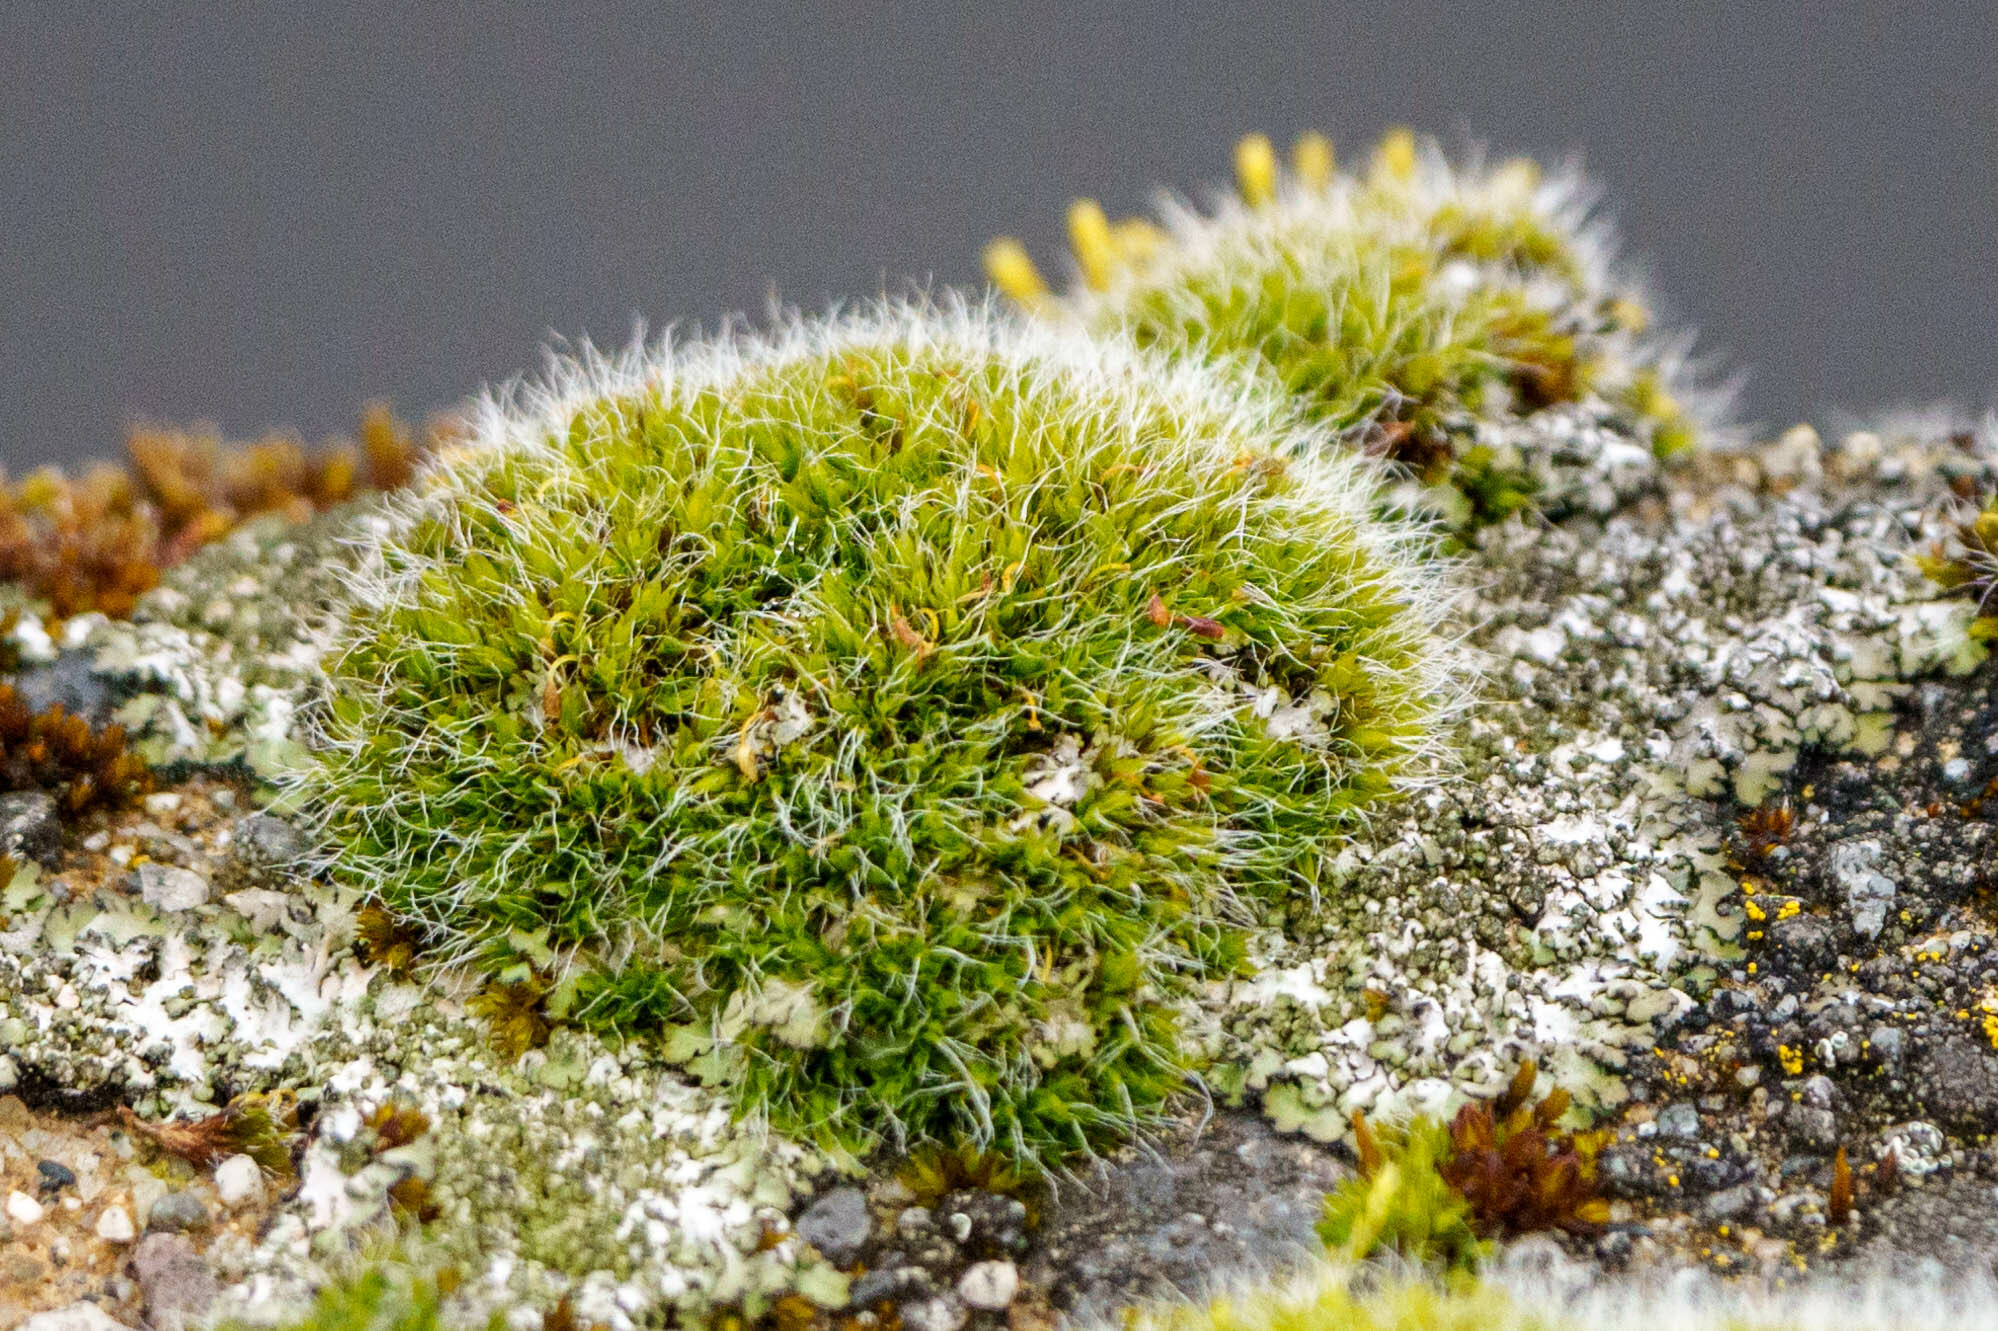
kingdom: Plantae
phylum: Bryophyta
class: Bryopsida
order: Grimmiales
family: Grimmiaceae
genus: Grimmia
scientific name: Grimmia pulvinata
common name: Grey-cushioned grimmia
